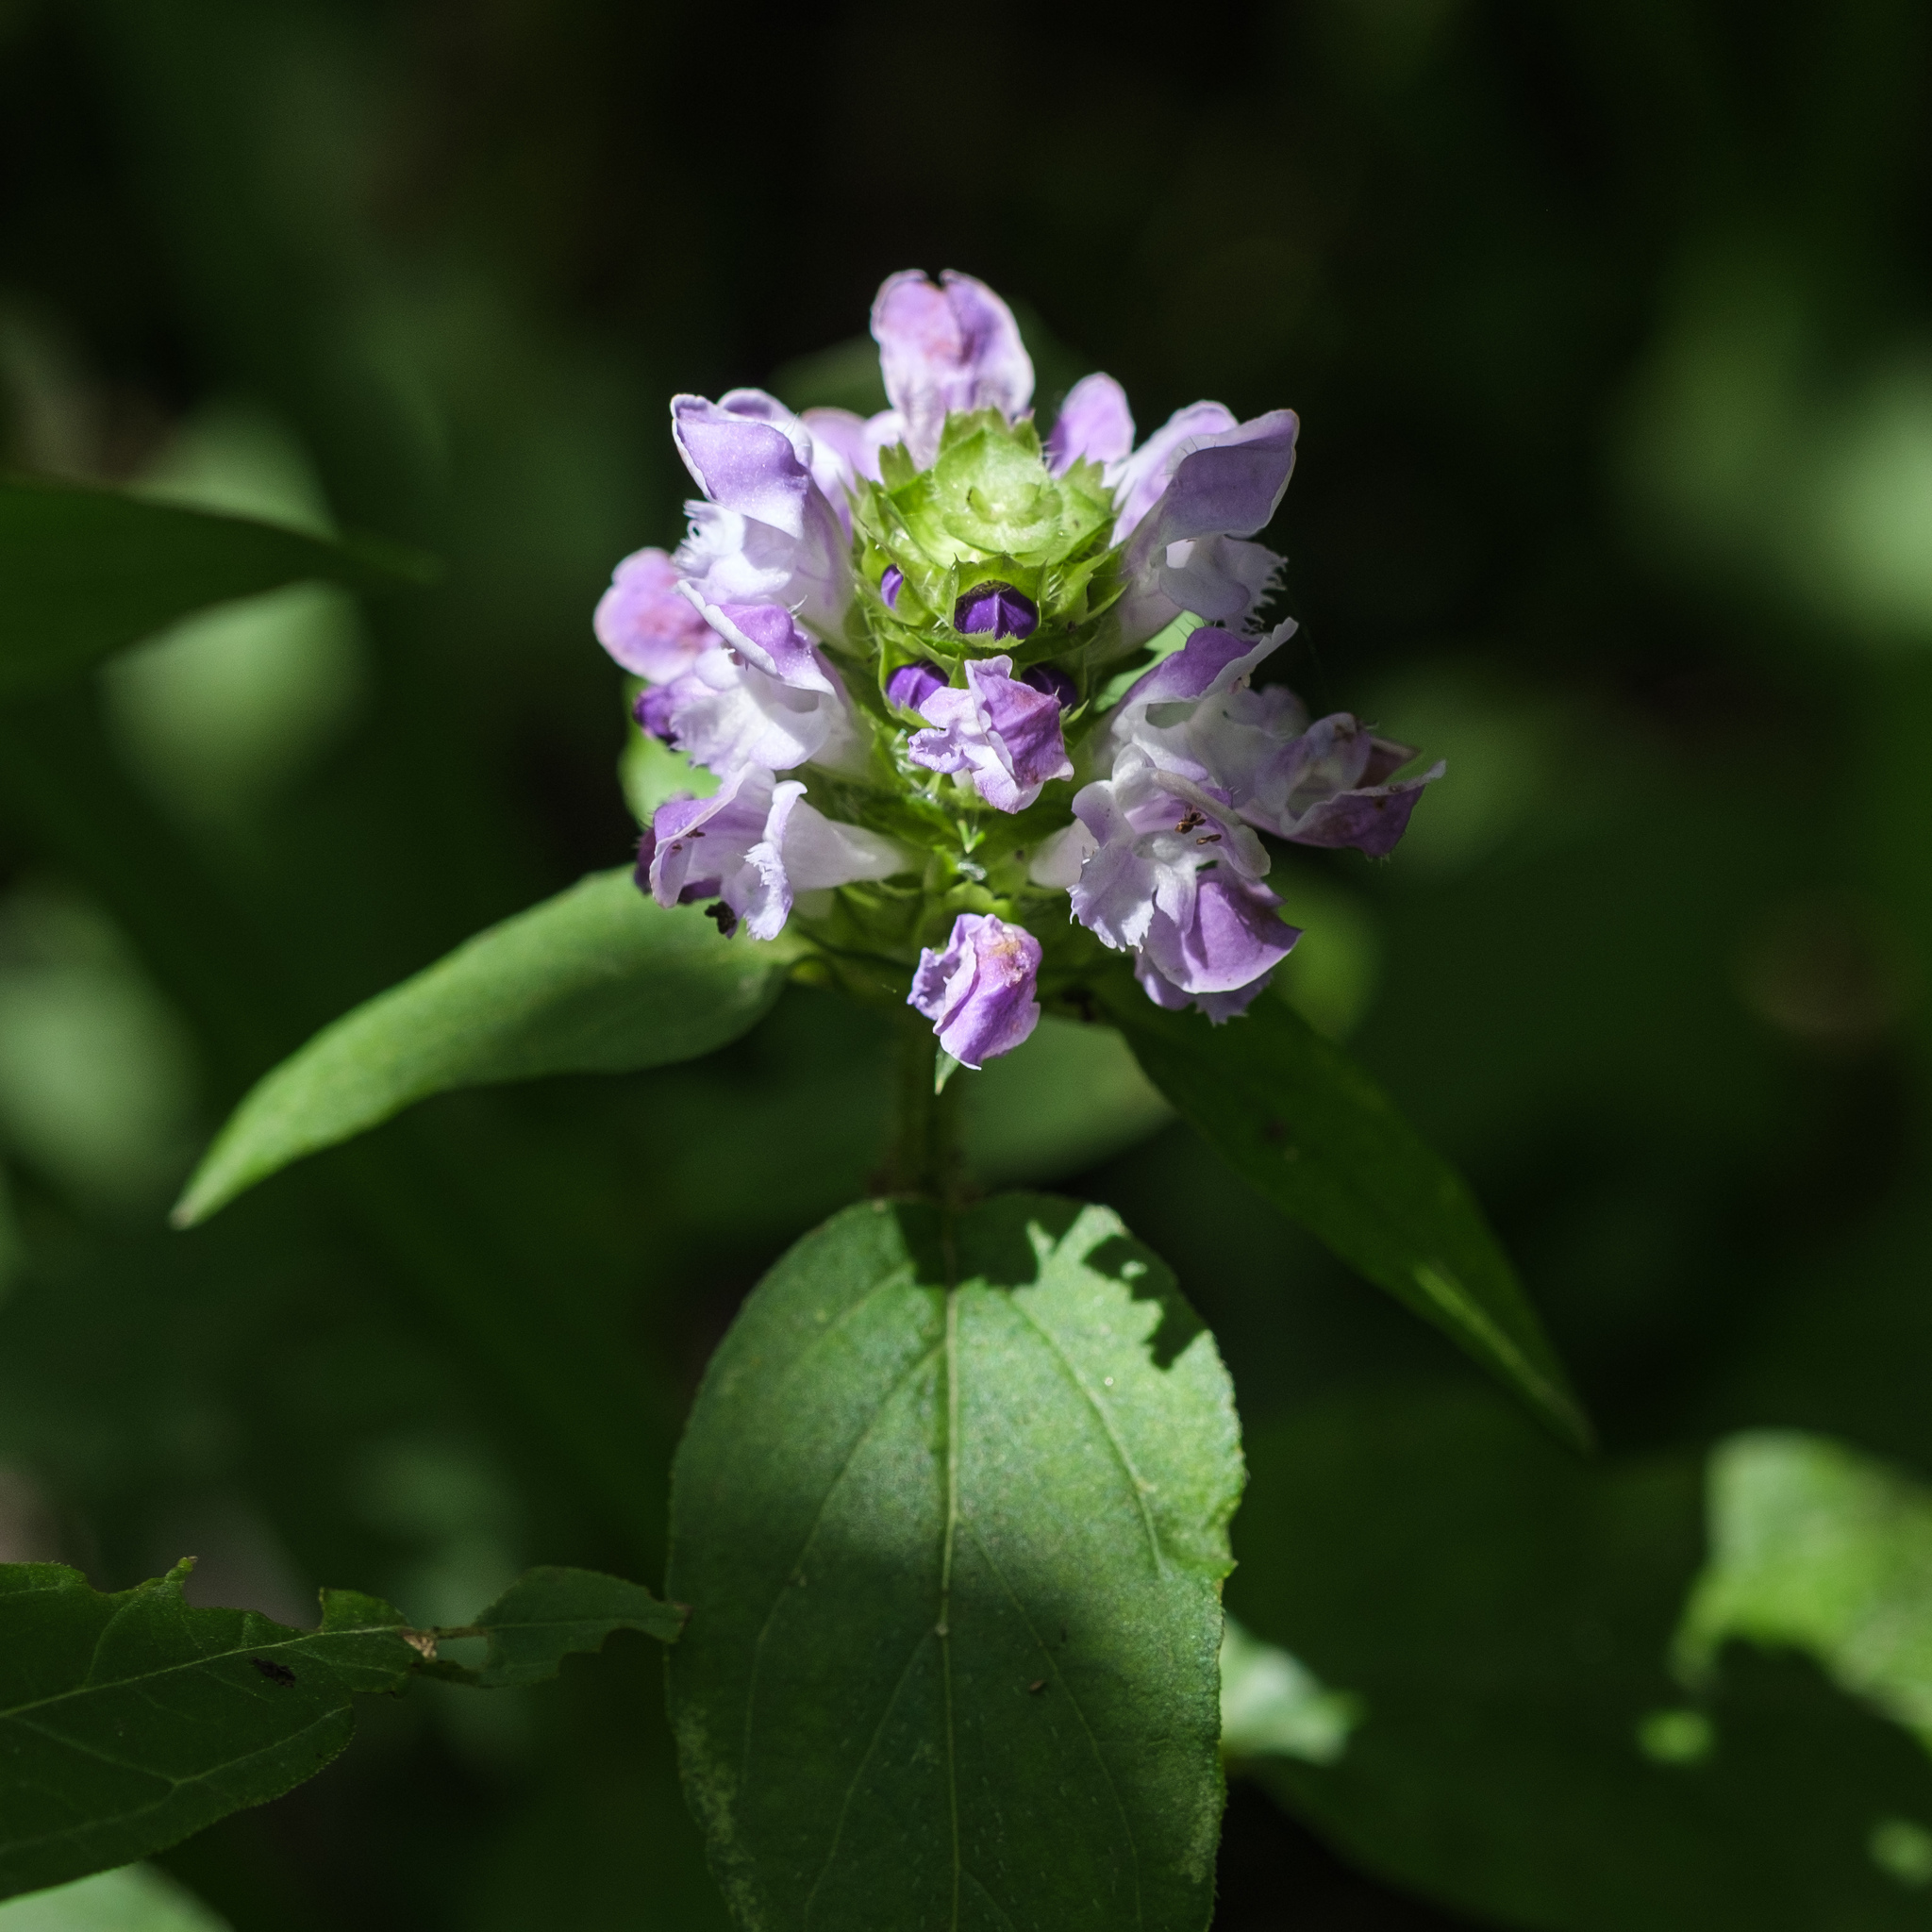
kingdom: Plantae
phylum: Tracheophyta
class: Magnoliopsida
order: Lamiales
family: Lamiaceae
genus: Prunella
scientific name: Prunella vulgaris
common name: Heal-all
